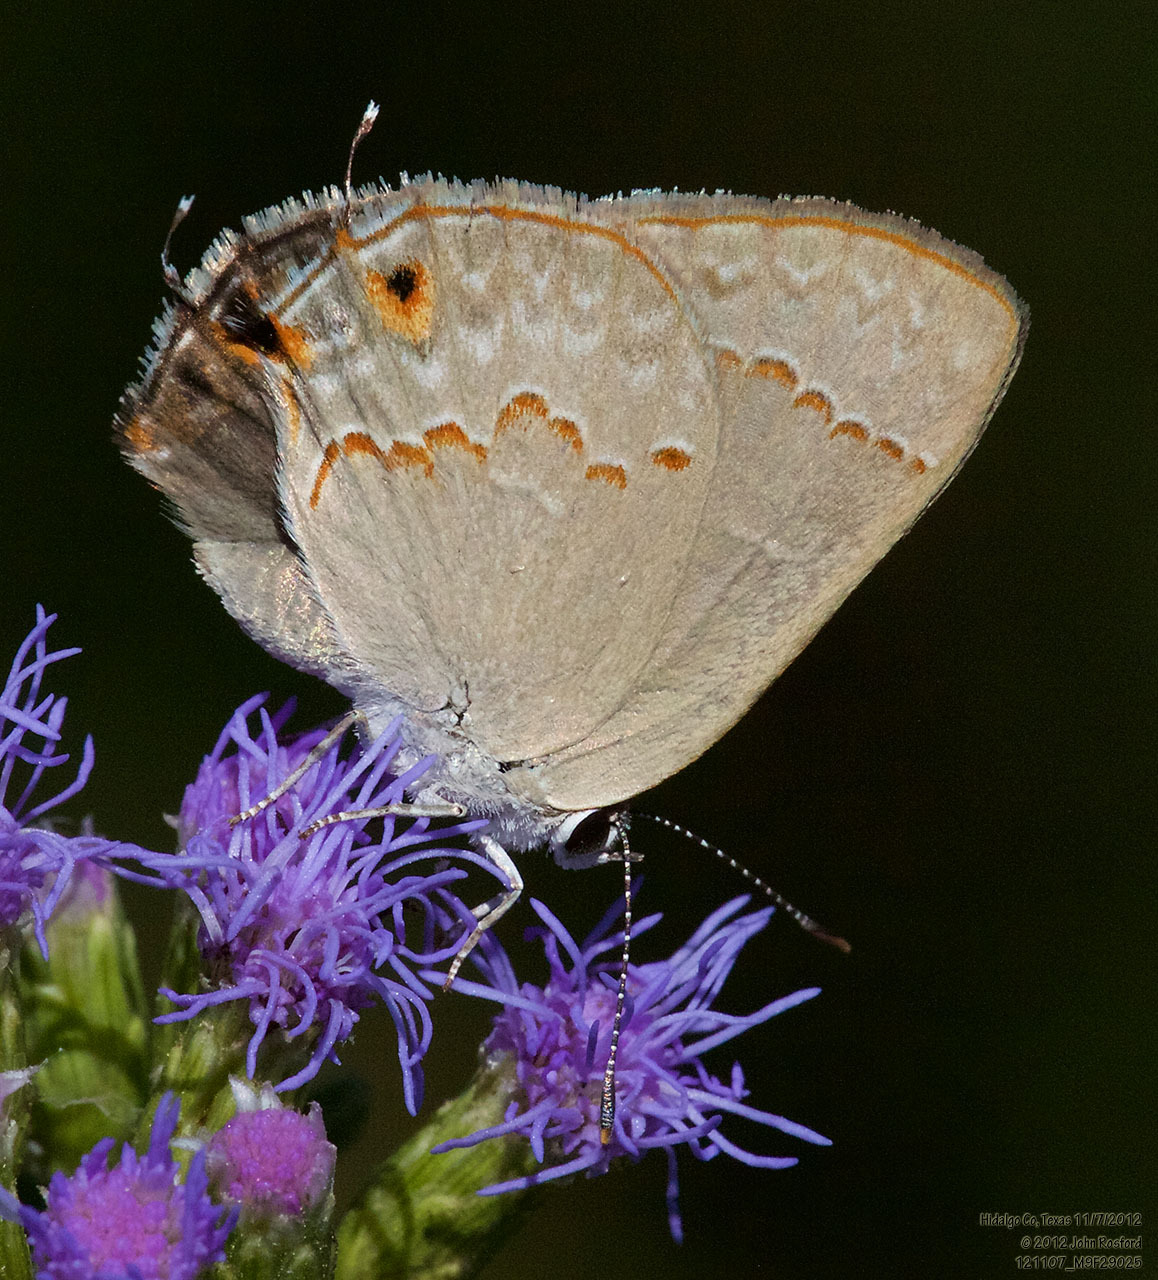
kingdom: Animalia
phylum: Arthropoda
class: Insecta
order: Lepidoptera
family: Lycaenidae
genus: Thecla
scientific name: Thecla rufofusca
